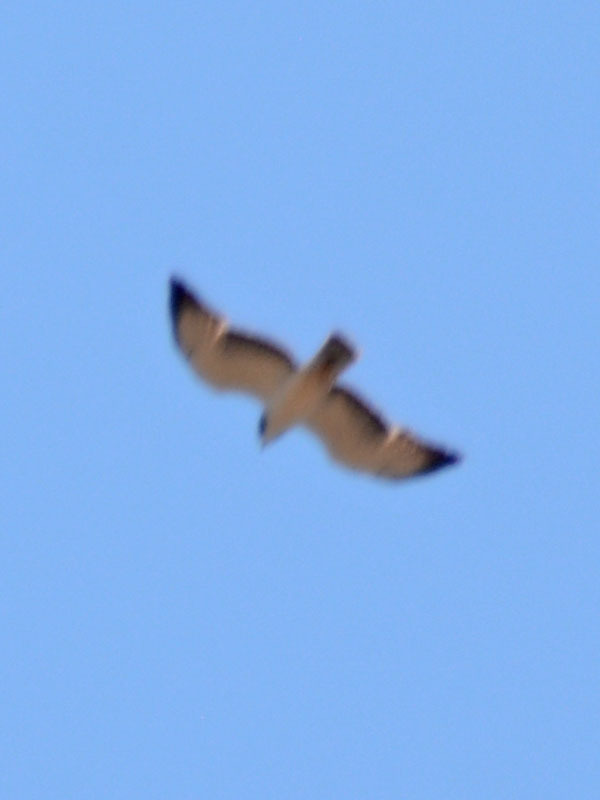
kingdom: Animalia
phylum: Chordata
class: Aves
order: Accipitriformes
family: Accipitridae
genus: Buteo
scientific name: Buteo brachyurus
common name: Short-tailed hawk
